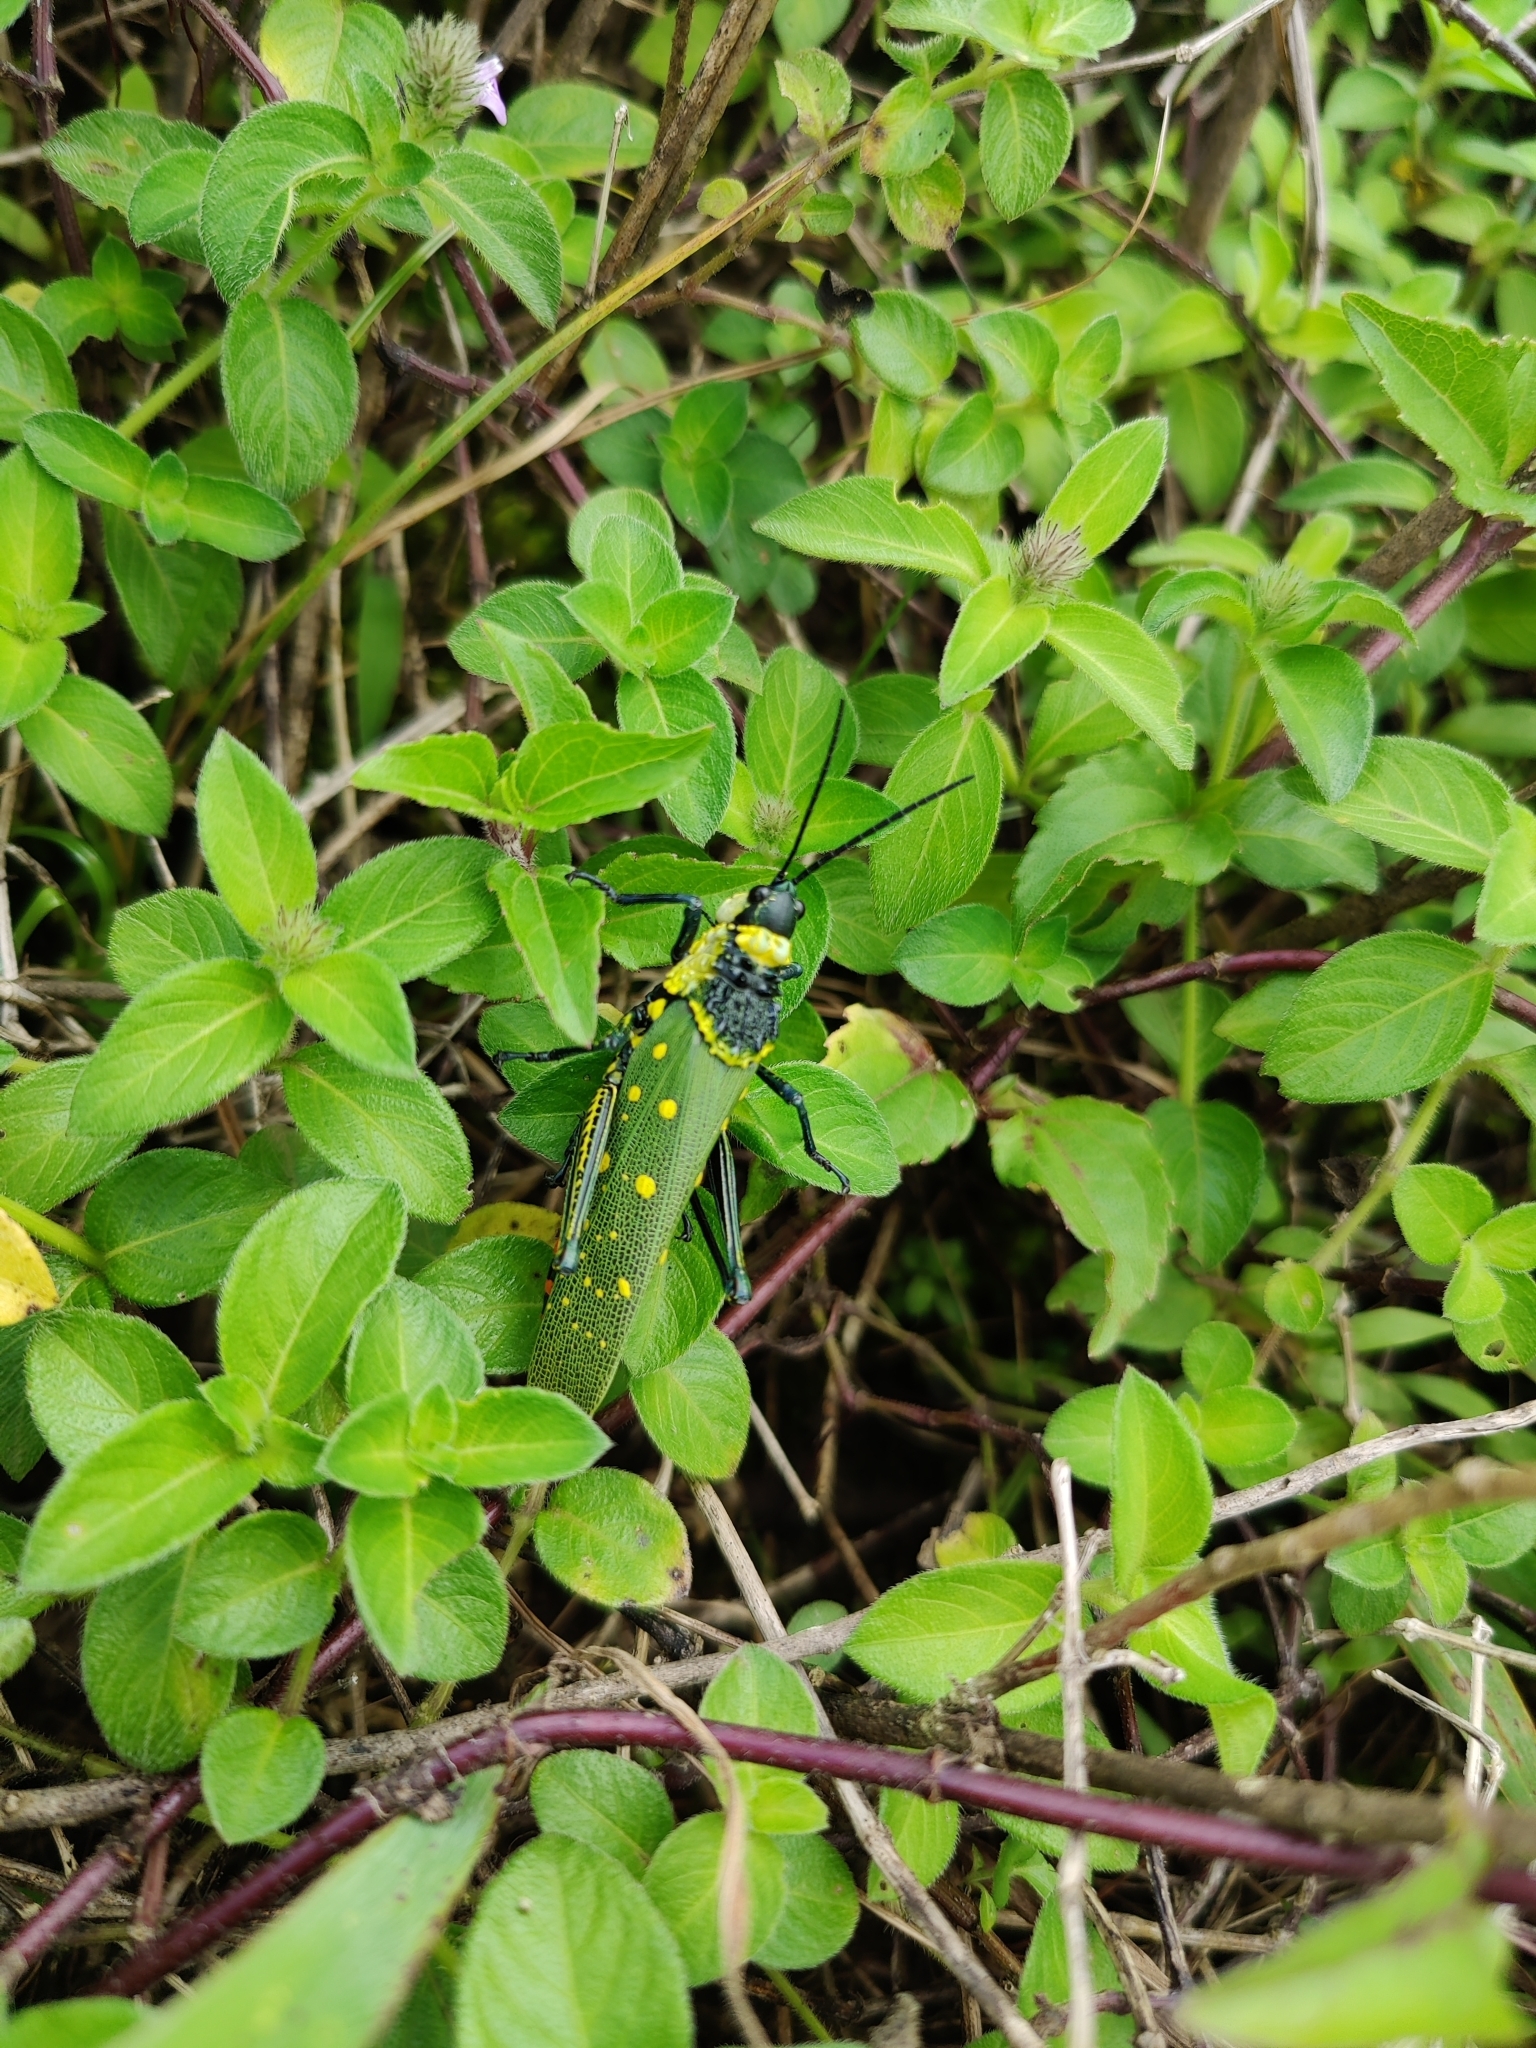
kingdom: Animalia
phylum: Arthropoda
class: Insecta
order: Orthoptera
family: Pyrgomorphidae
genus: Aularches
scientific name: Aularches miliaris
